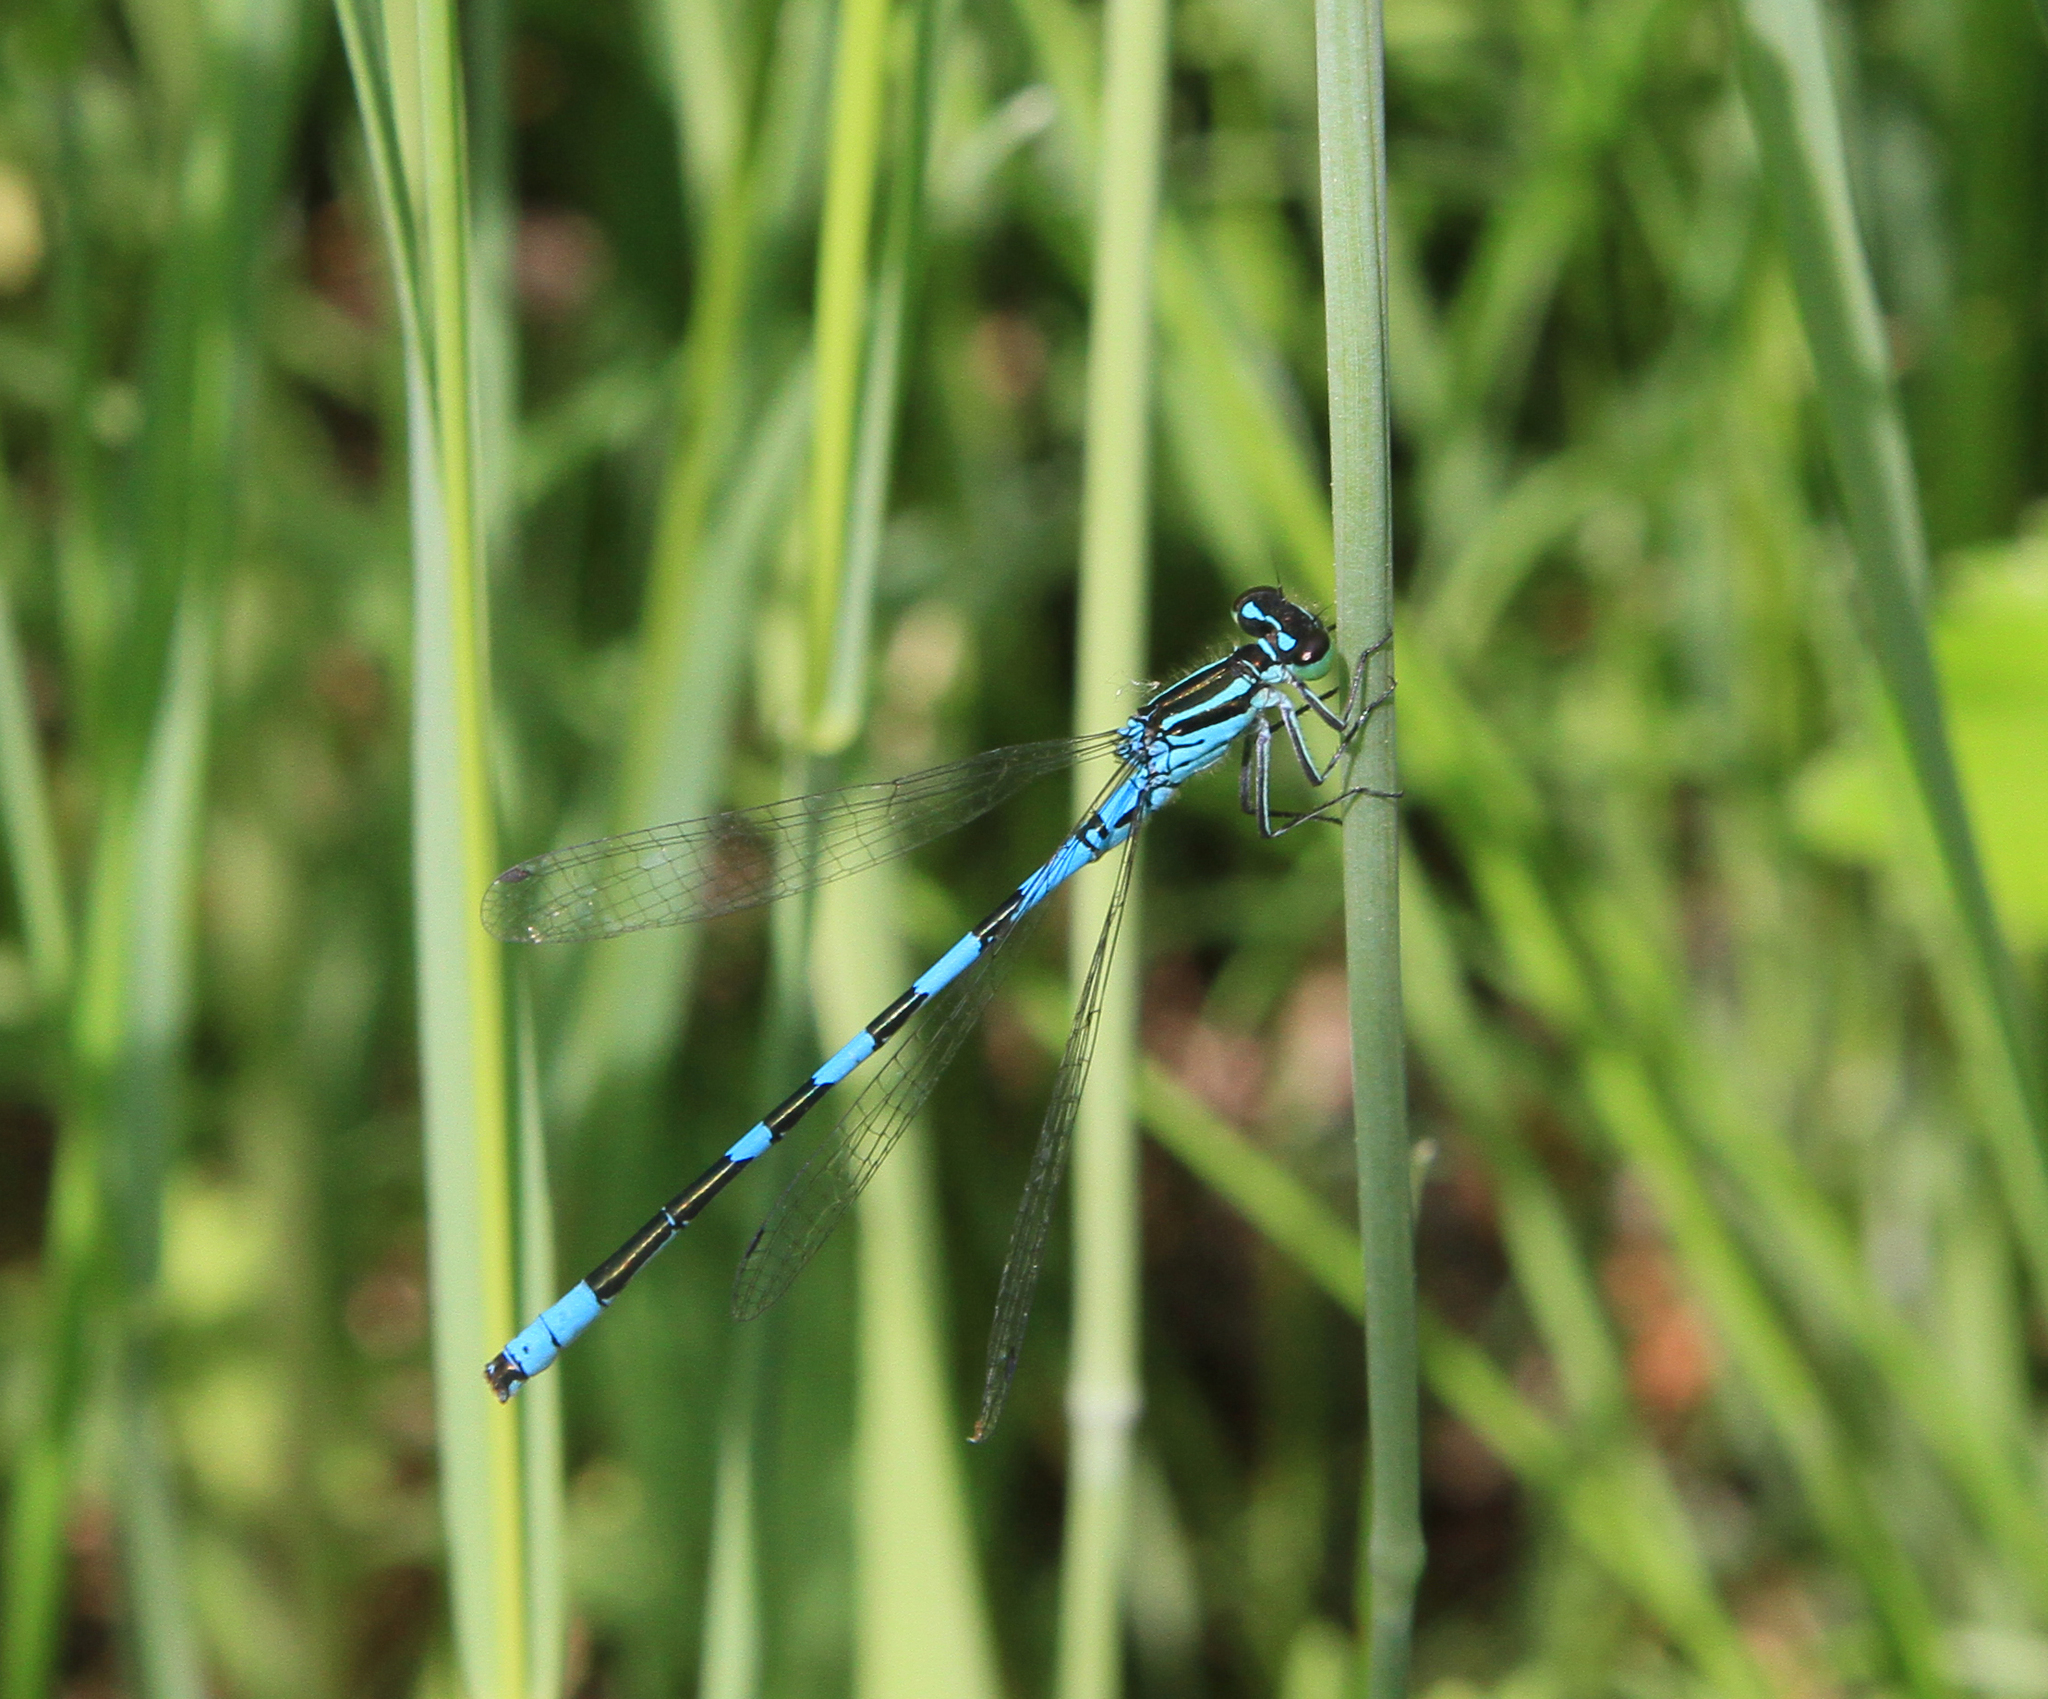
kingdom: Animalia
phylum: Arthropoda
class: Insecta
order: Odonata
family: Coenagrionidae
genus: Coenagrion
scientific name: Coenagrion hastulatum
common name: Spearhead bluet
